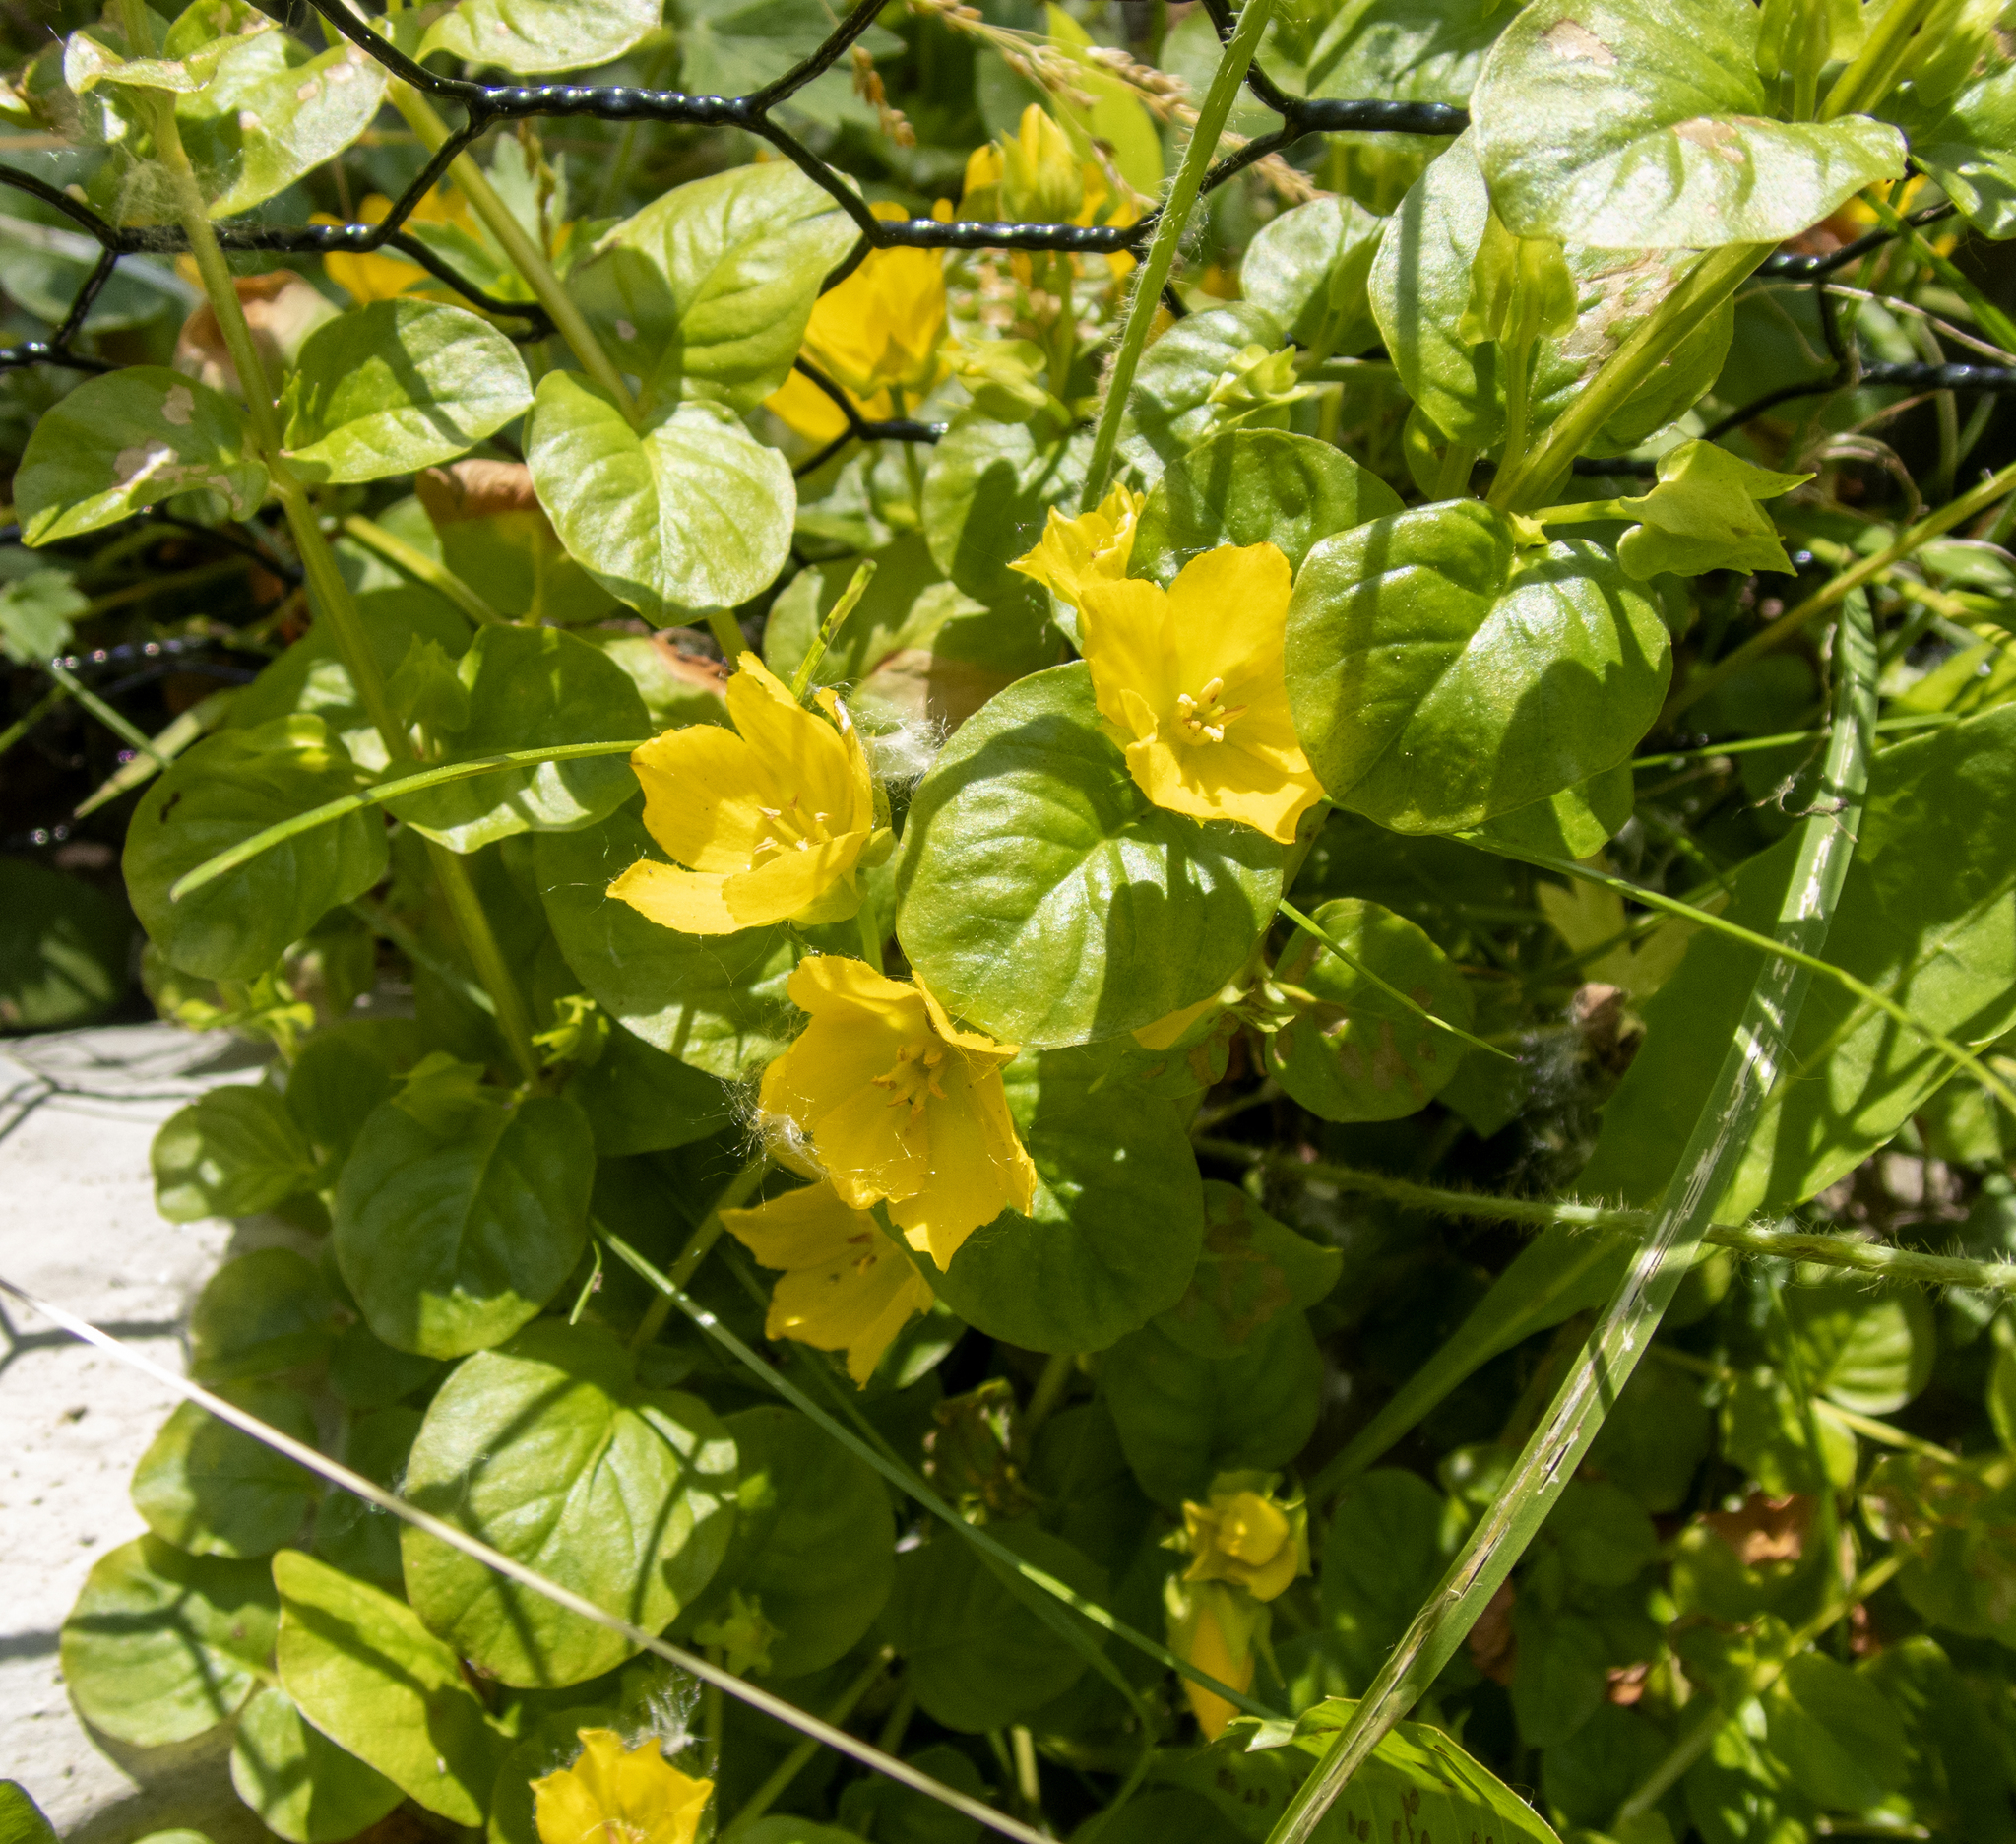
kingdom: Plantae
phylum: Tracheophyta
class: Magnoliopsida
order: Ericales
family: Primulaceae
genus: Lysimachia
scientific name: Lysimachia nummularia
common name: Moneywort
